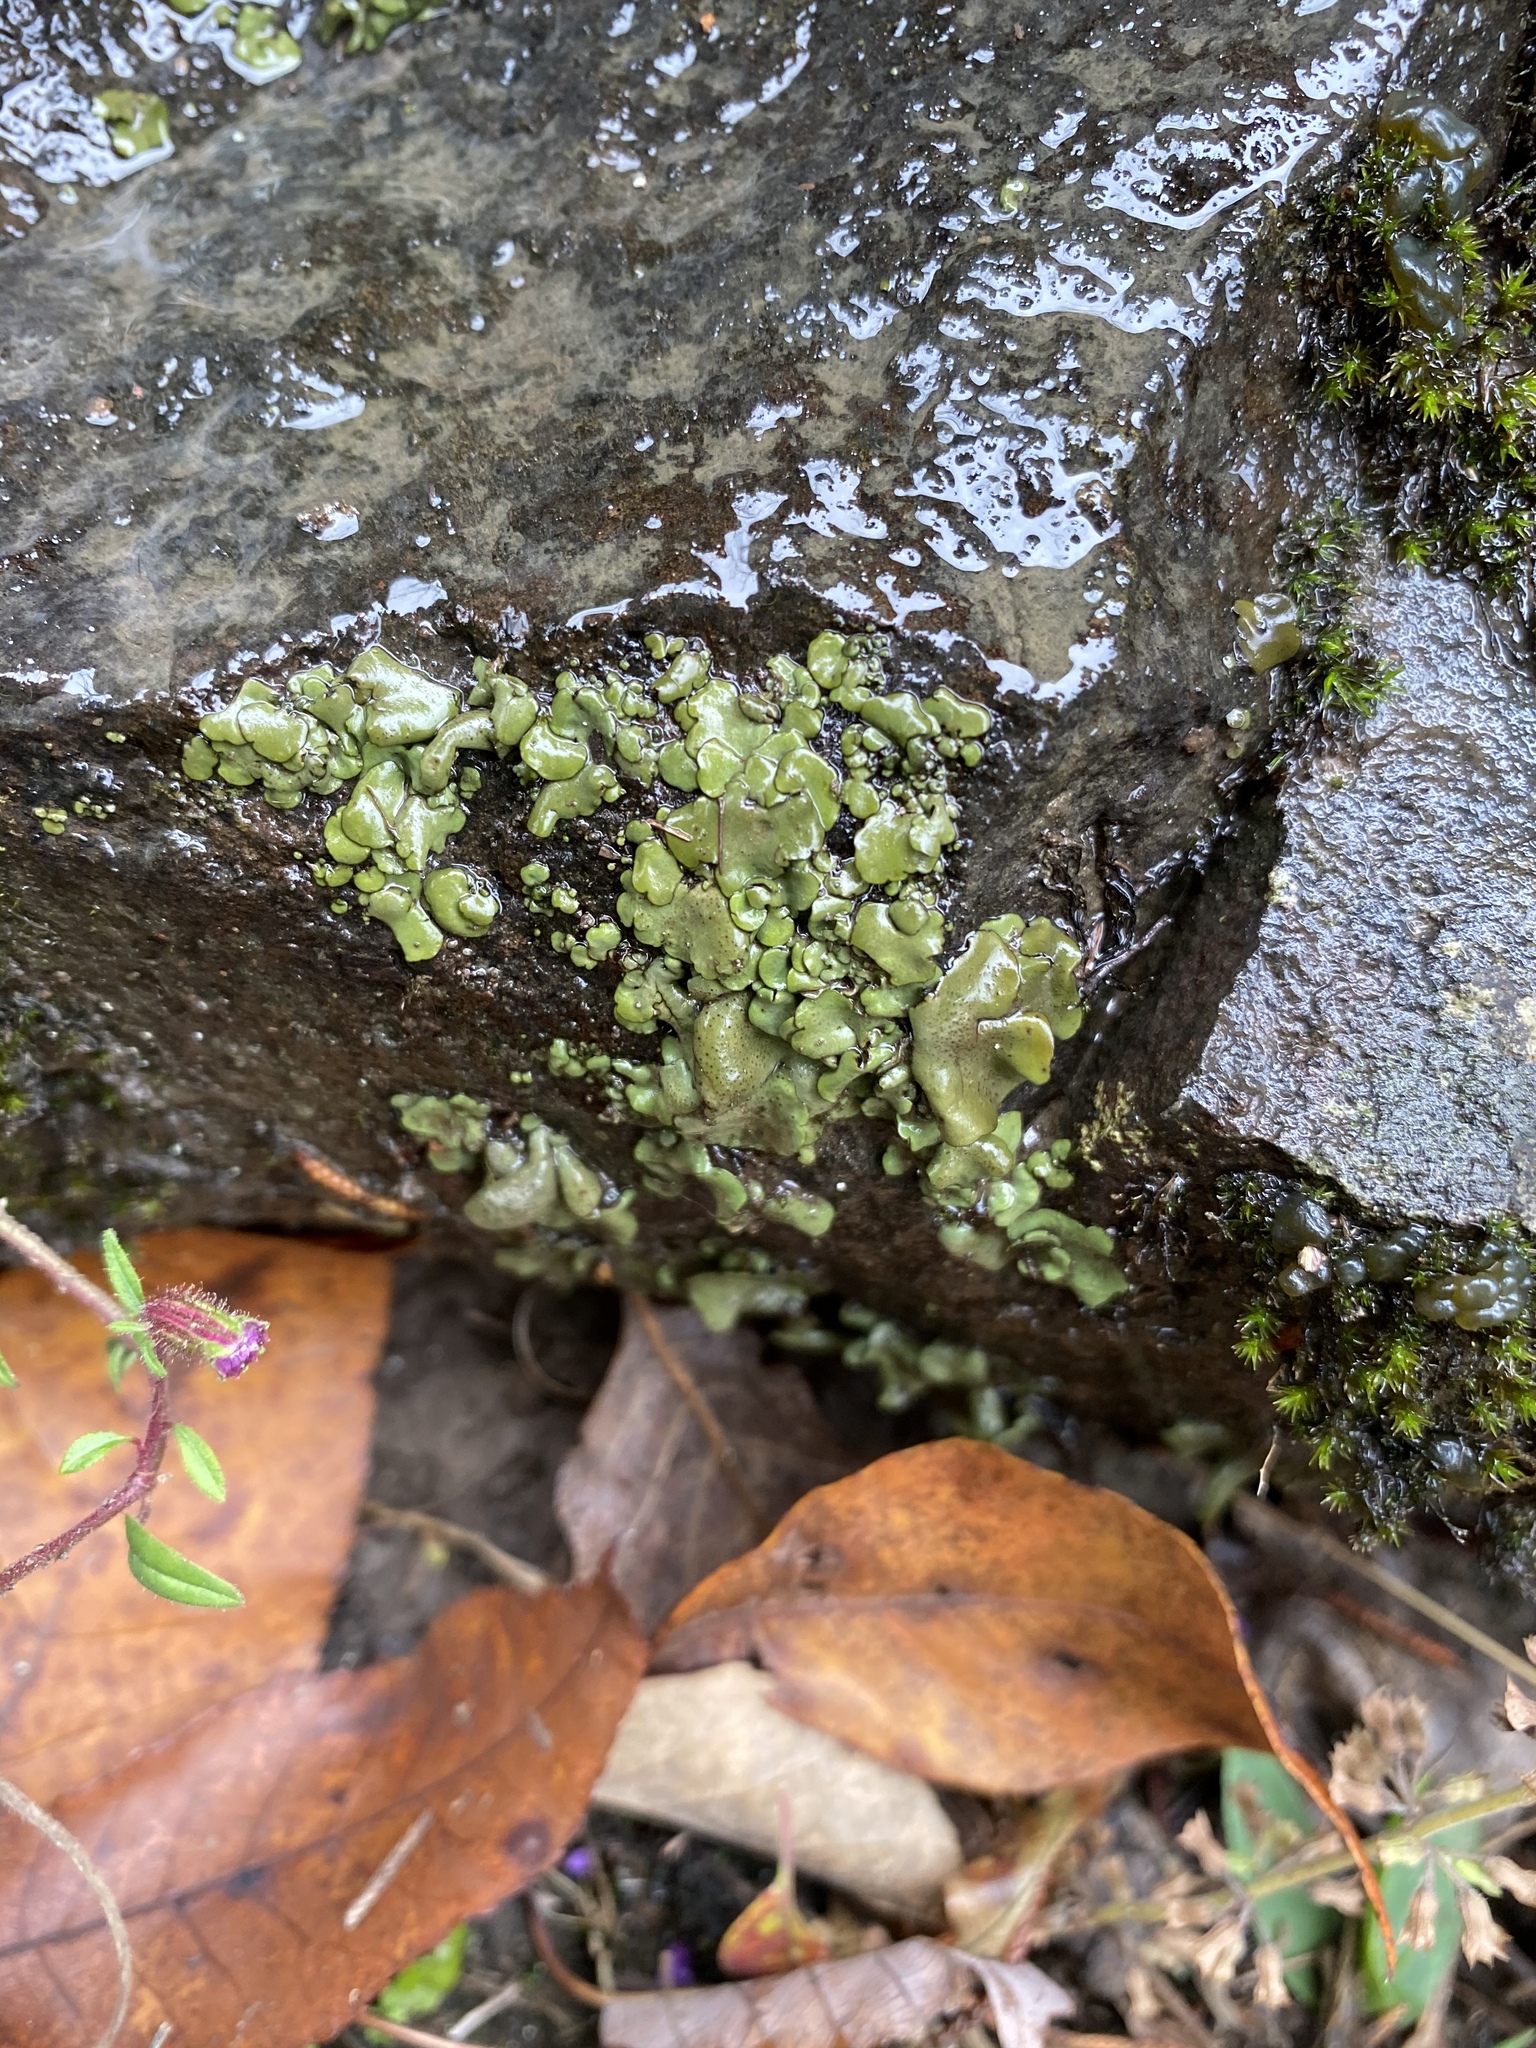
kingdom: Fungi
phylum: Ascomycota
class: Eurotiomycetes
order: Verrucariales
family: Verrucariaceae
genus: Dermatocarpon
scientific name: Dermatocarpon luridum
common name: Brook stippleback lichen
